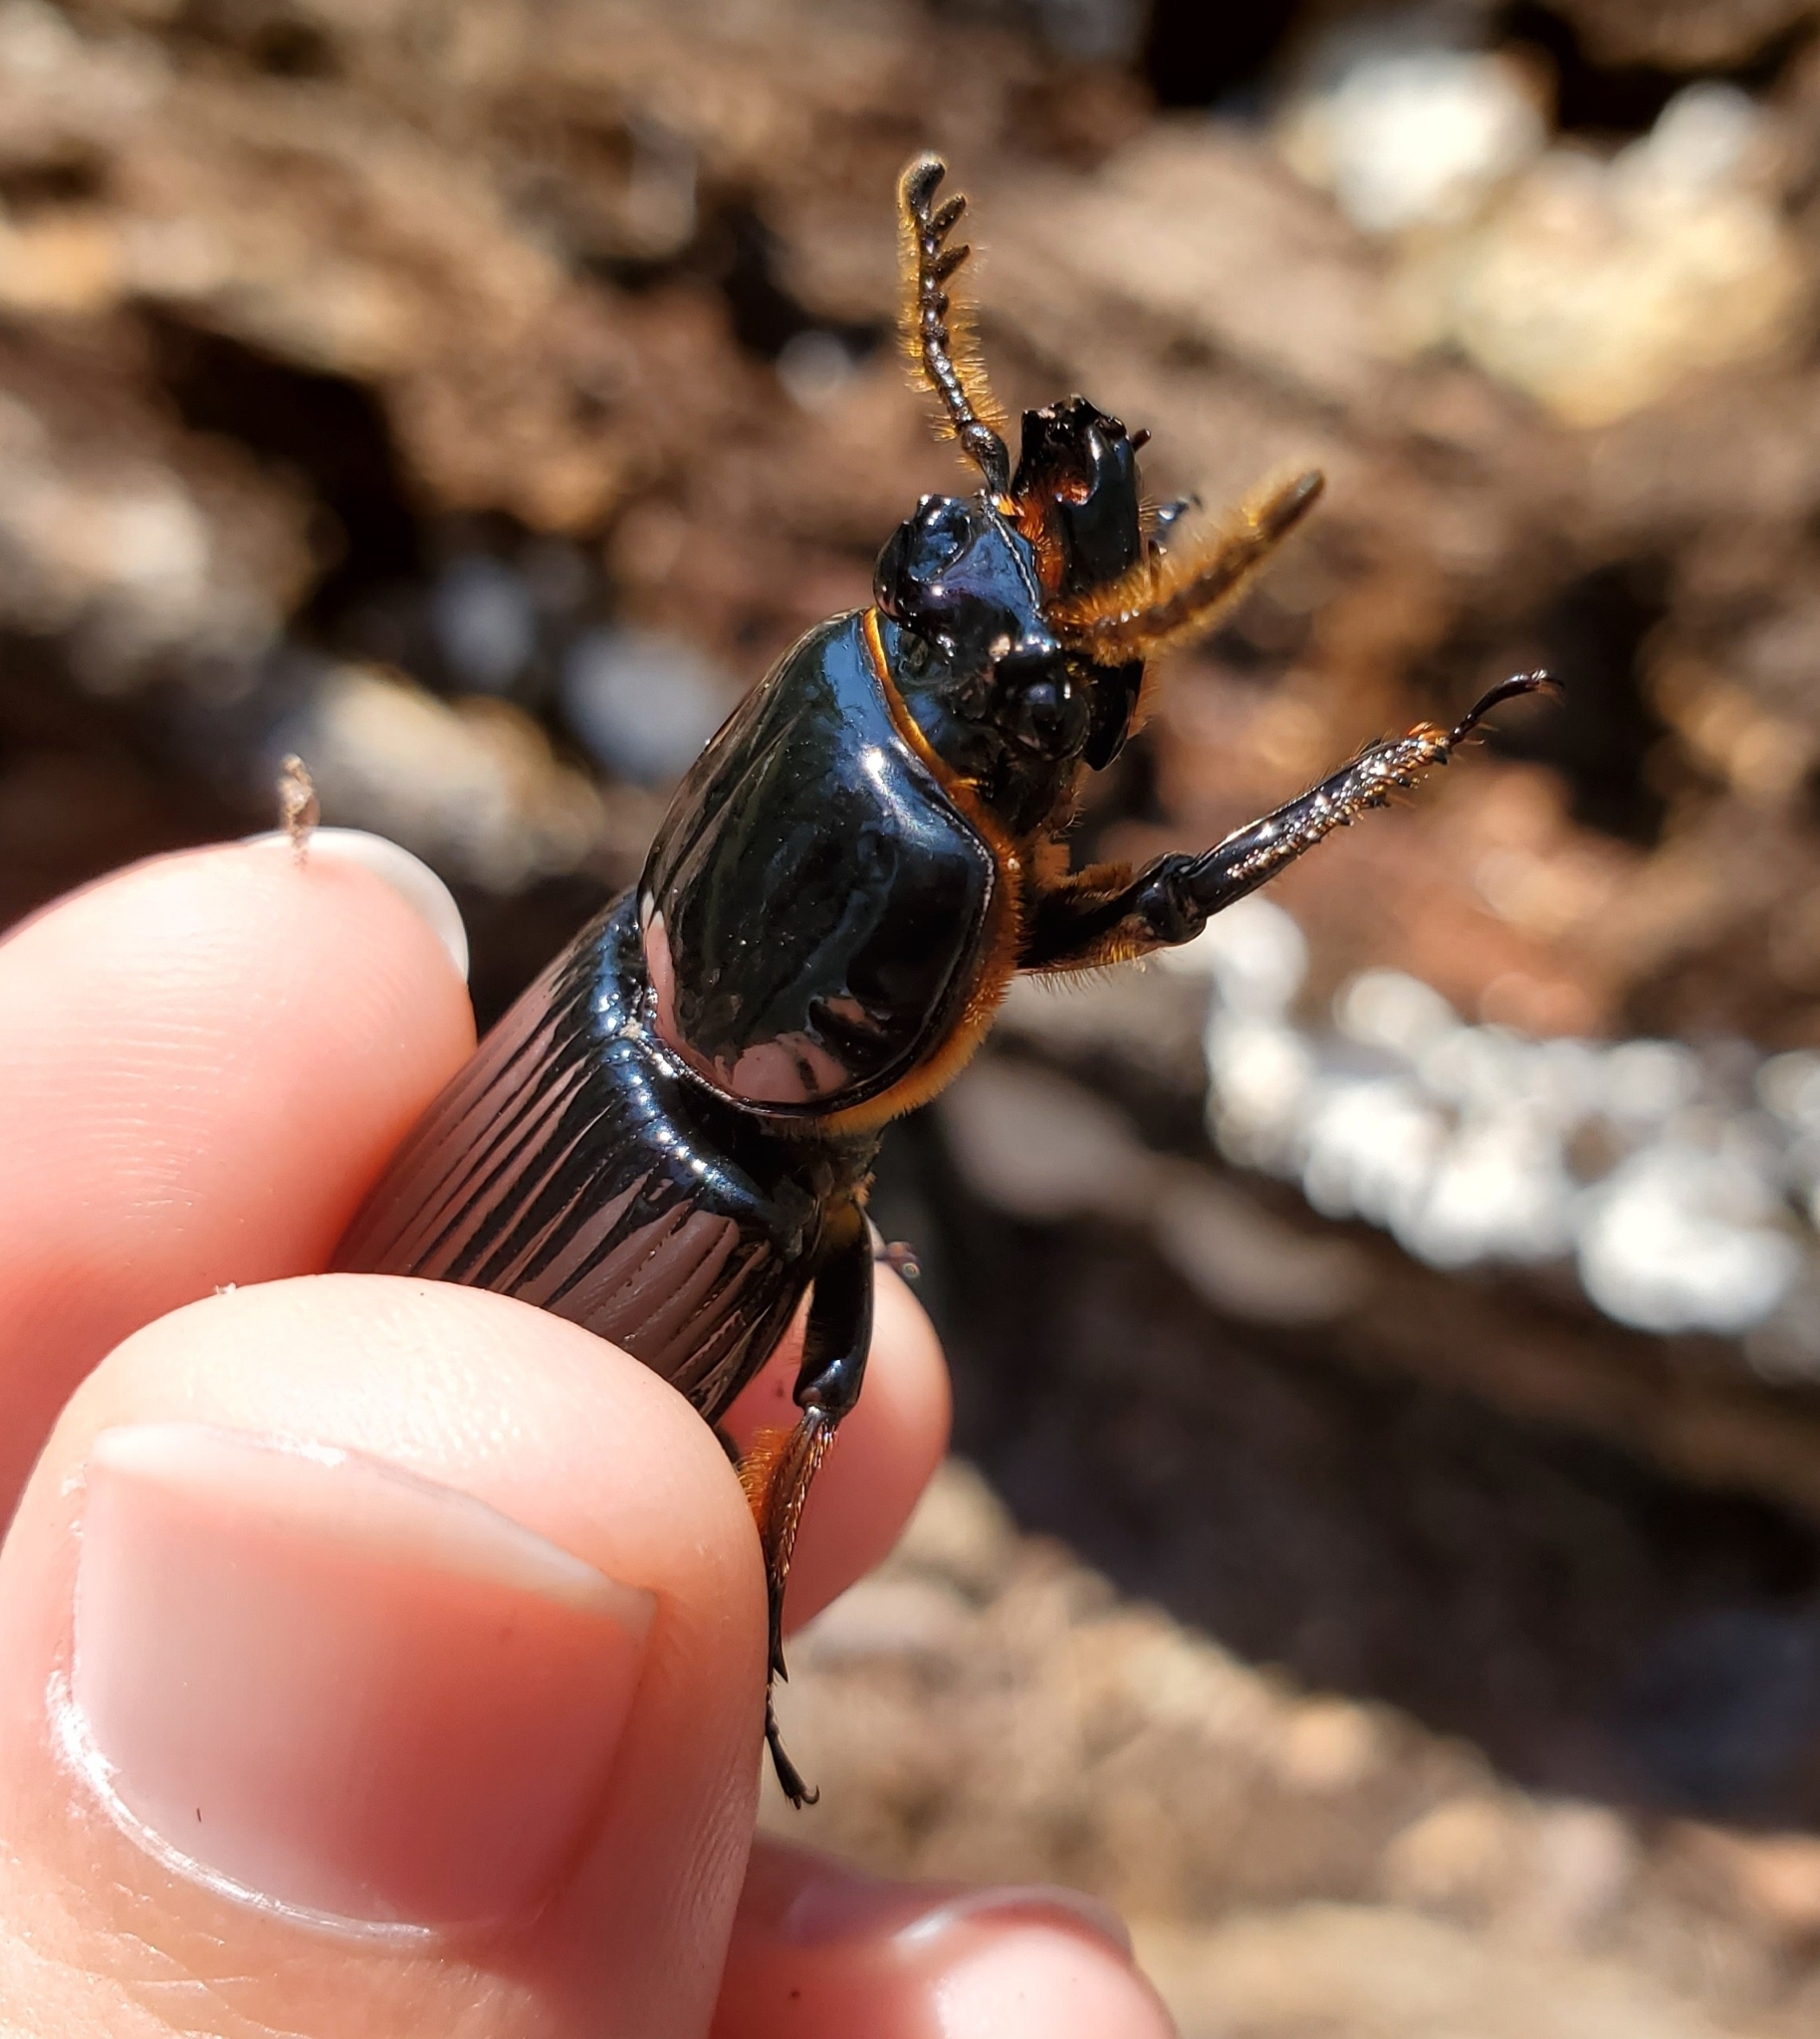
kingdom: Animalia
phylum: Arthropoda
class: Insecta
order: Coleoptera
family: Passalidae
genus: Odontotaenius
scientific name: Odontotaenius disjunctus
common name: Patent leather beetle
